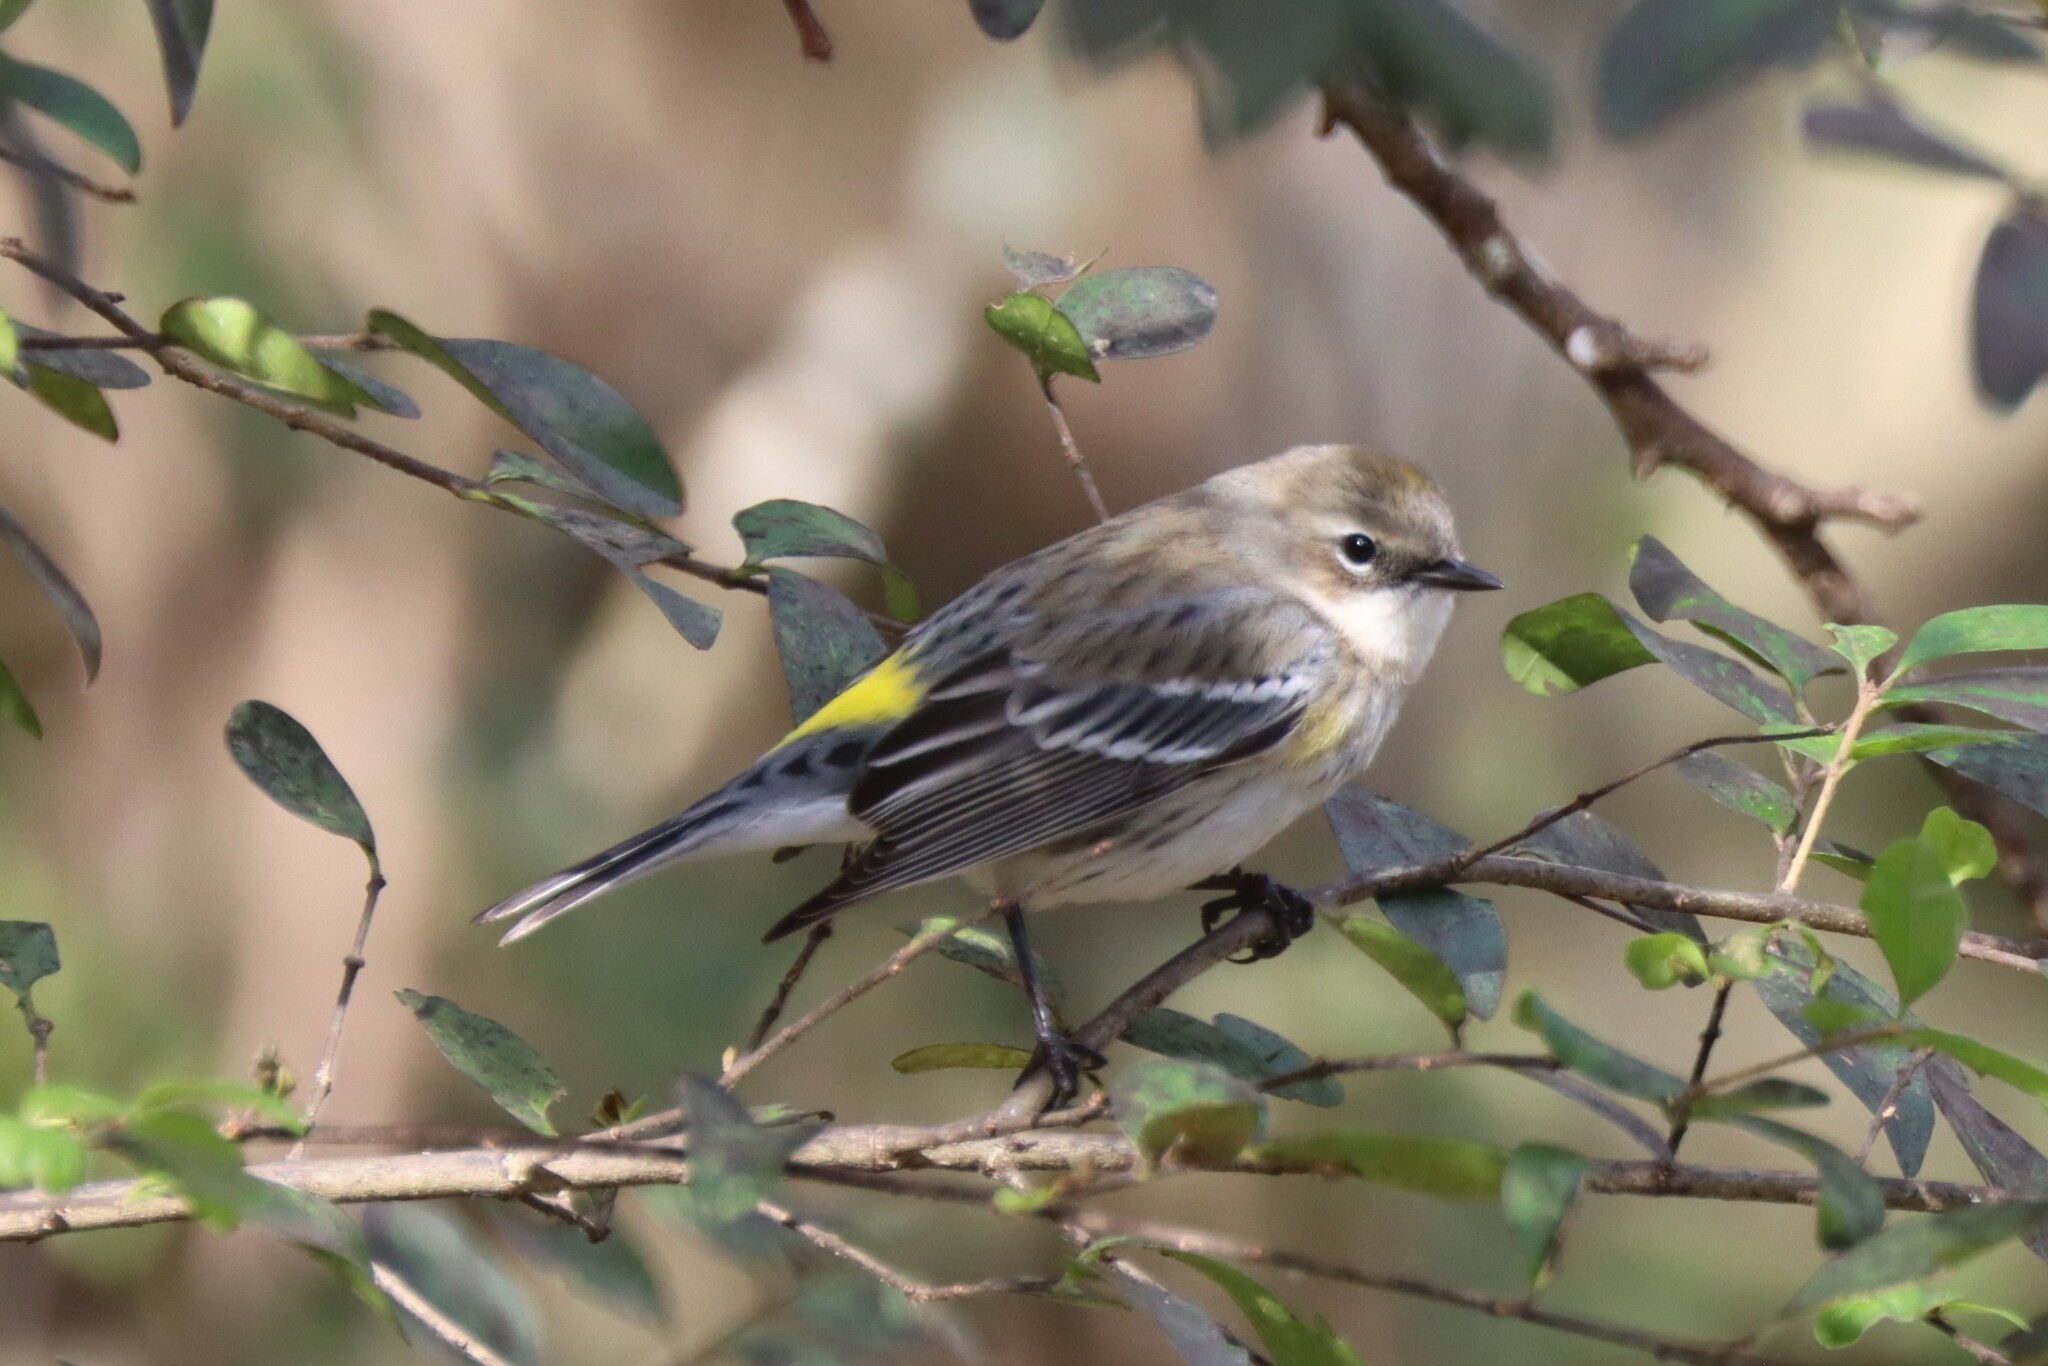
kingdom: Animalia
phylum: Chordata
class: Aves
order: Passeriformes
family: Parulidae
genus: Setophaga
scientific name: Setophaga coronata
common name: Myrtle warbler
